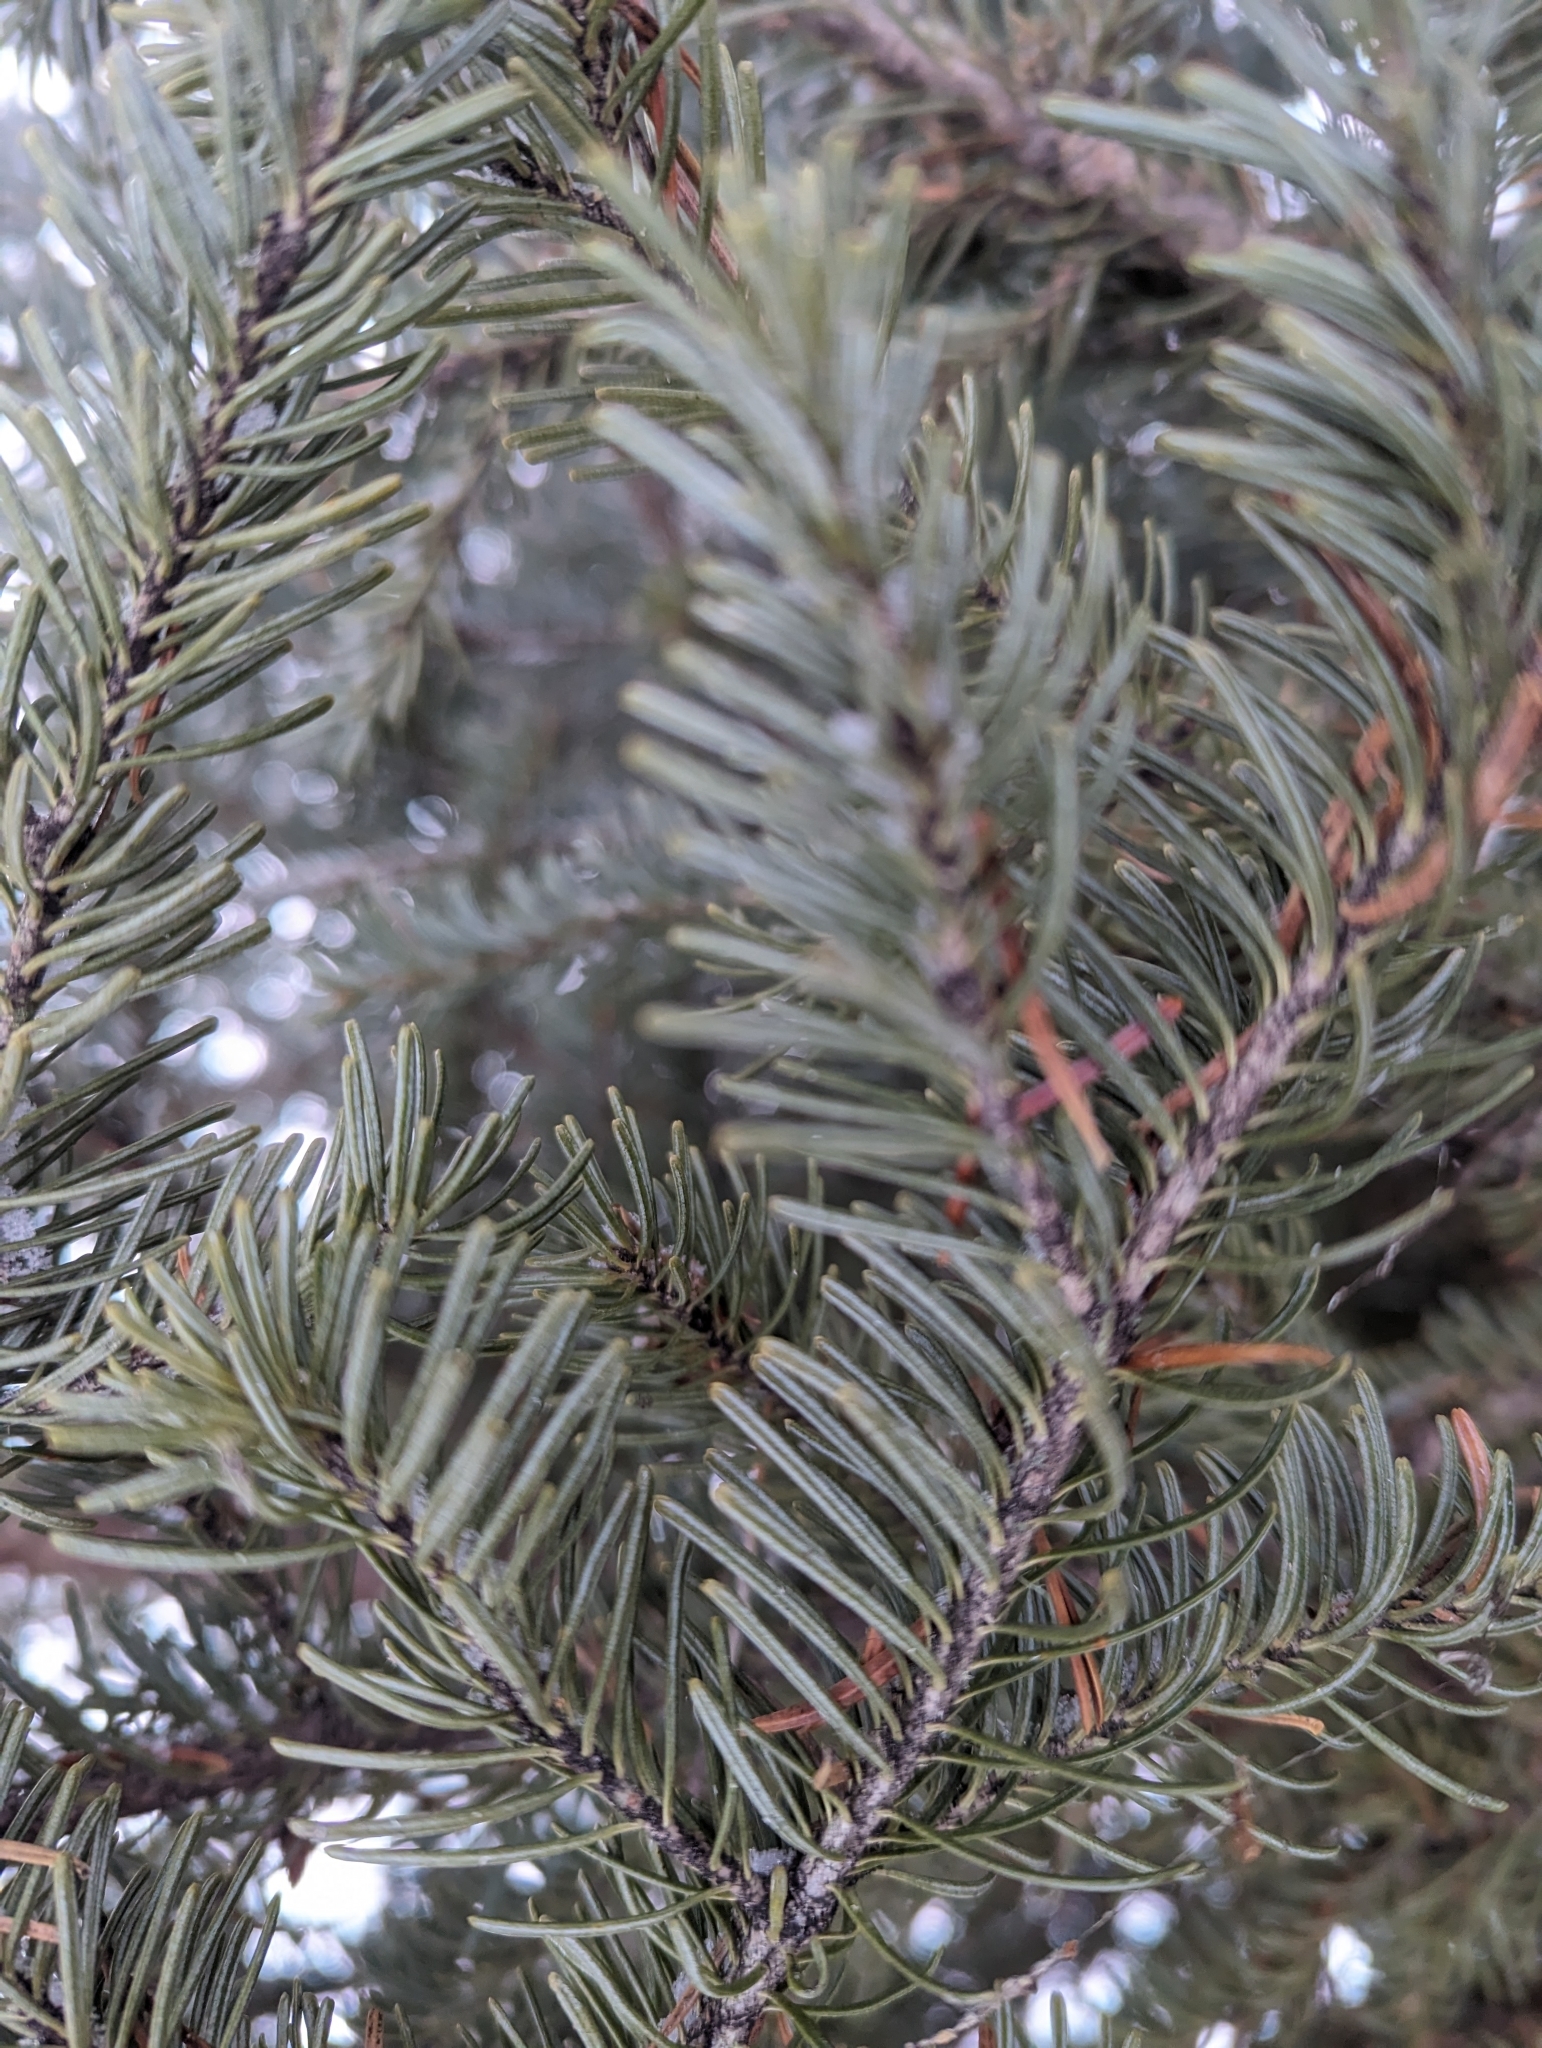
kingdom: Plantae
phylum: Tracheophyta
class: Pinopsida
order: Pinales
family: Pinaceae
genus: Abies
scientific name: Abies lasiocarpa
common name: Subalpine fir
